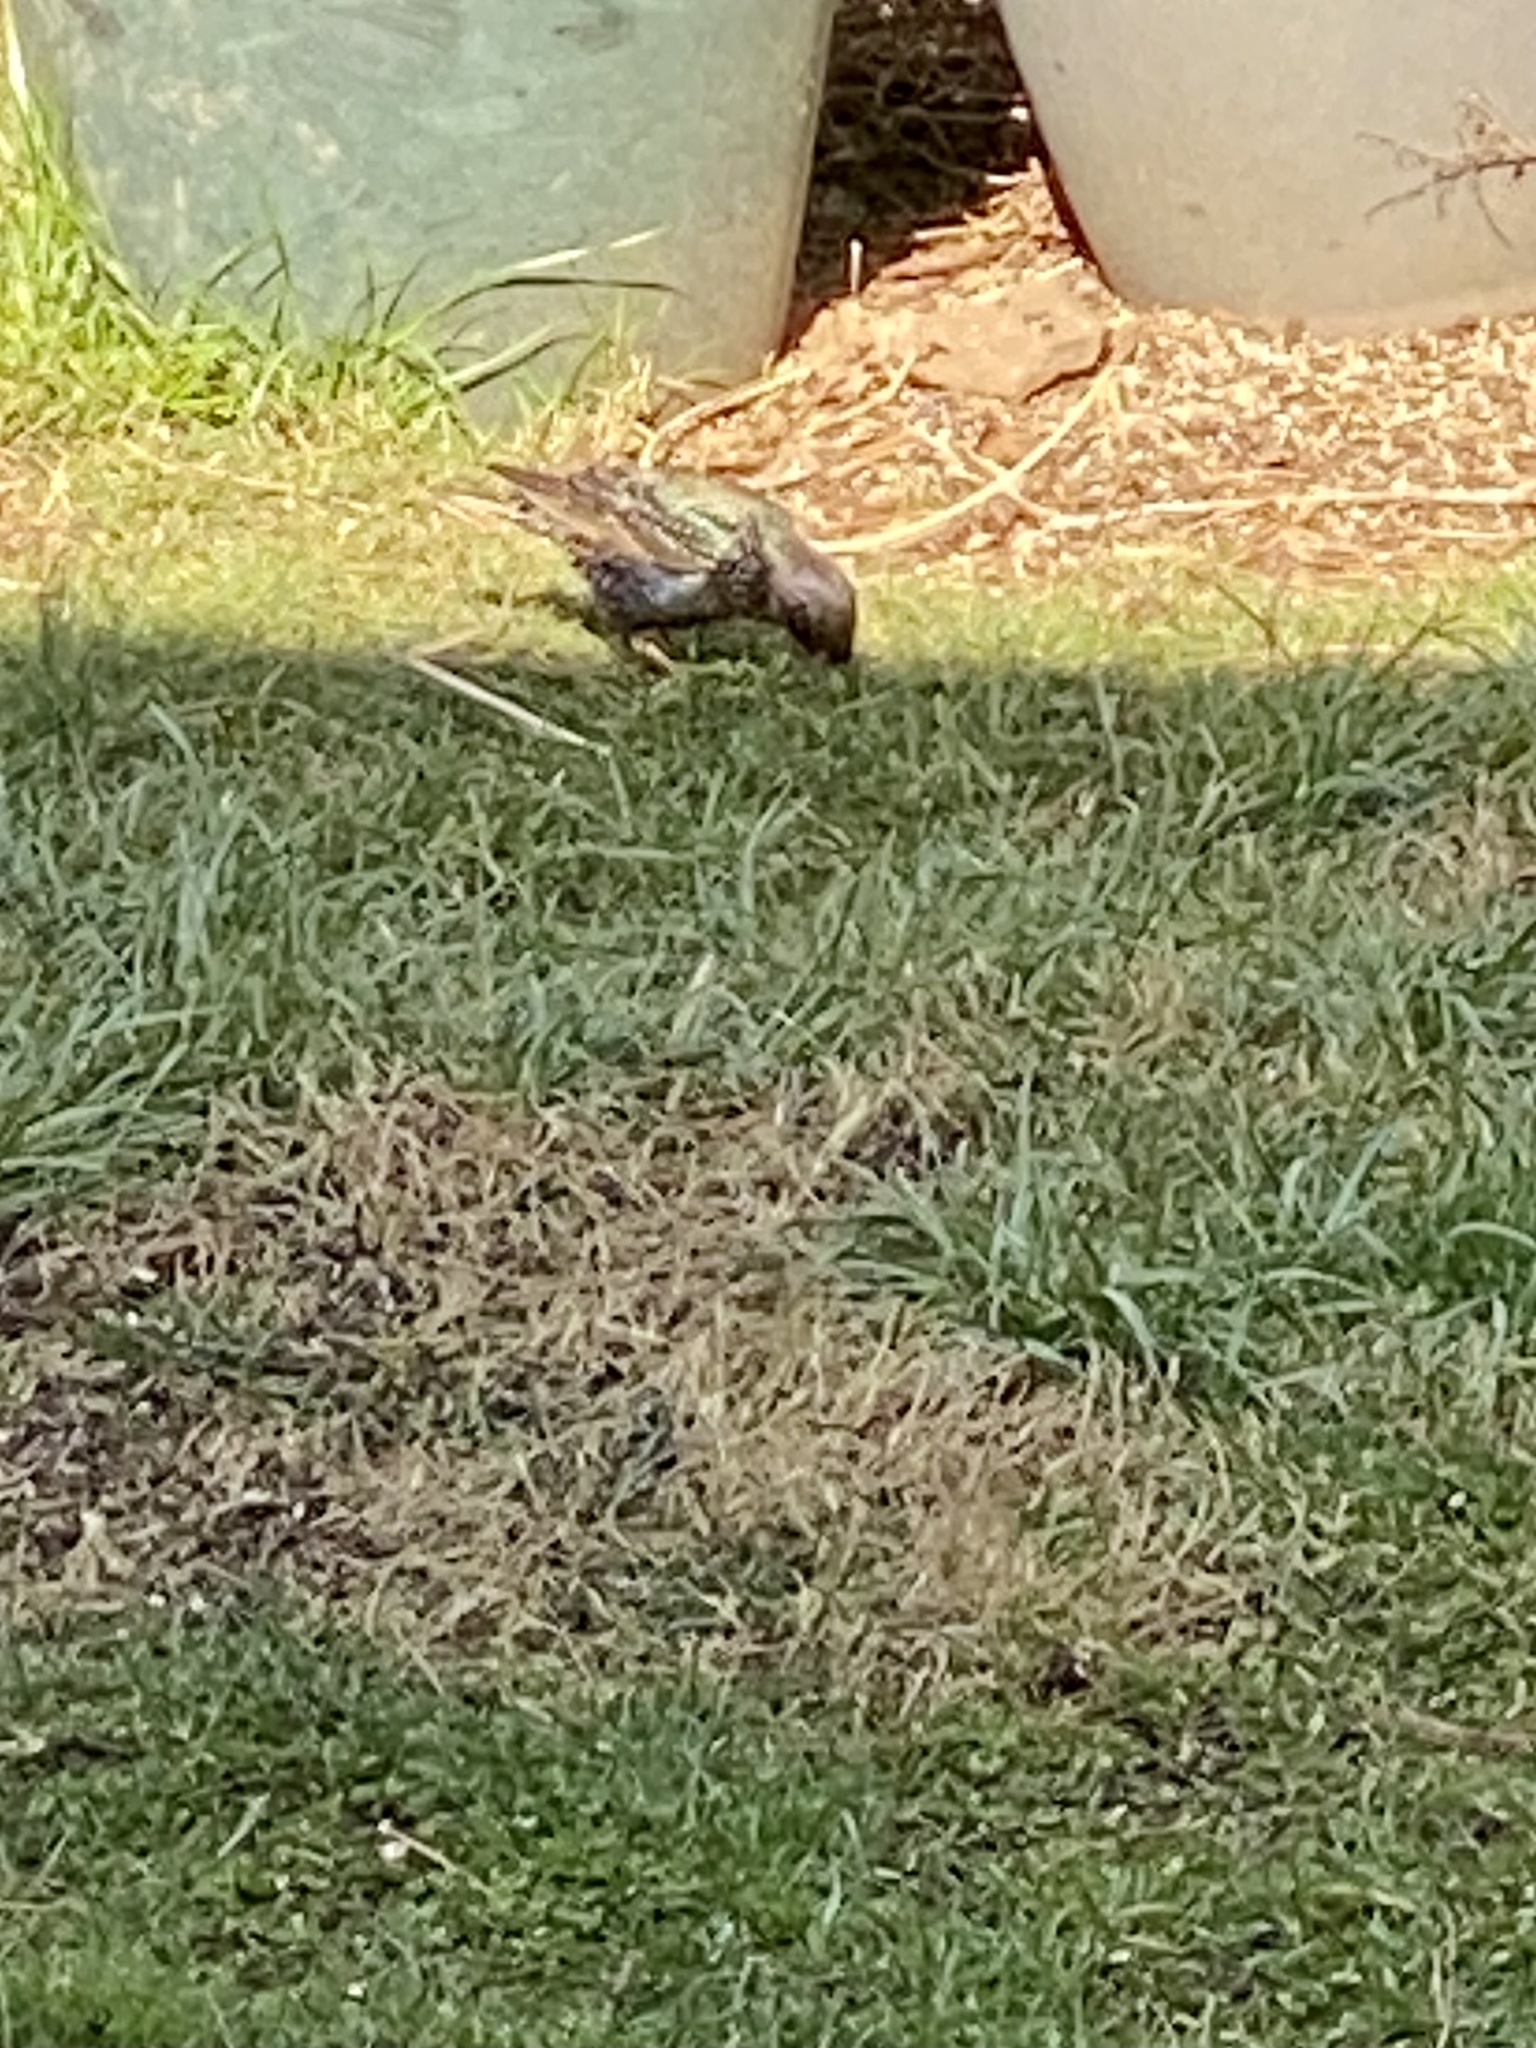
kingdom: Animalia
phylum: Chordata
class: Aves
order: Passeriformes
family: Sturnidae
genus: Sturnus
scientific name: Sturnus vulgaris
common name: Common starling
